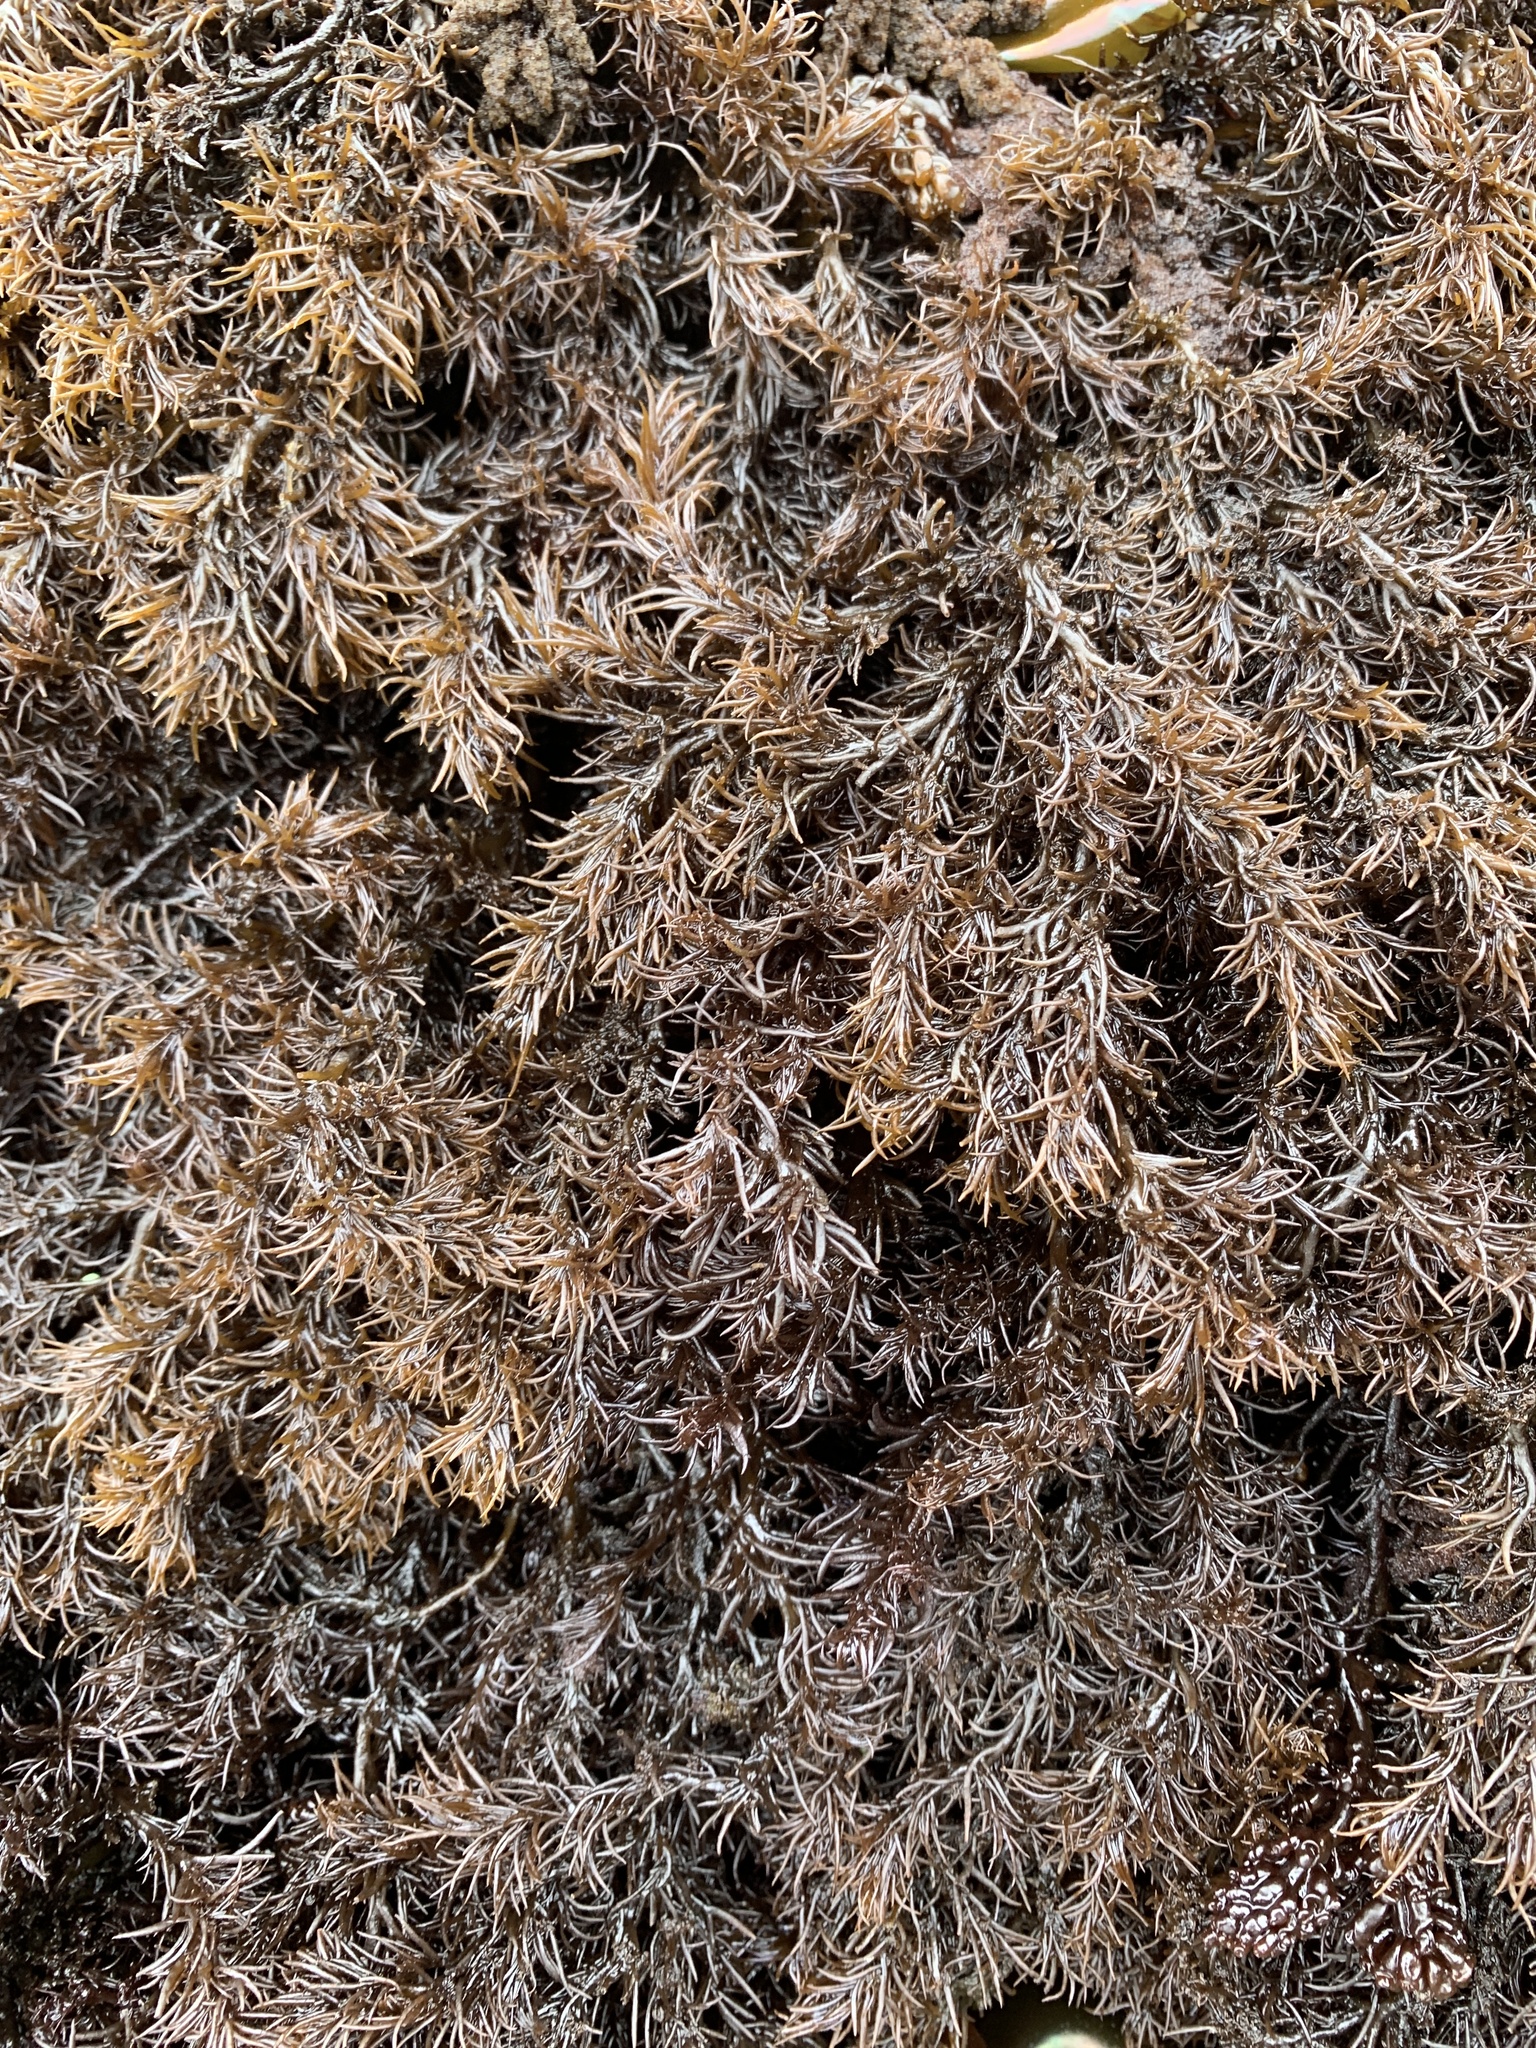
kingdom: Plantae
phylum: Rhodophyta
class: Florideophyceae
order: Ceramiales
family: Rhodomelaceae
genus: Neorhodomela
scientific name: Neorhodomela larix
